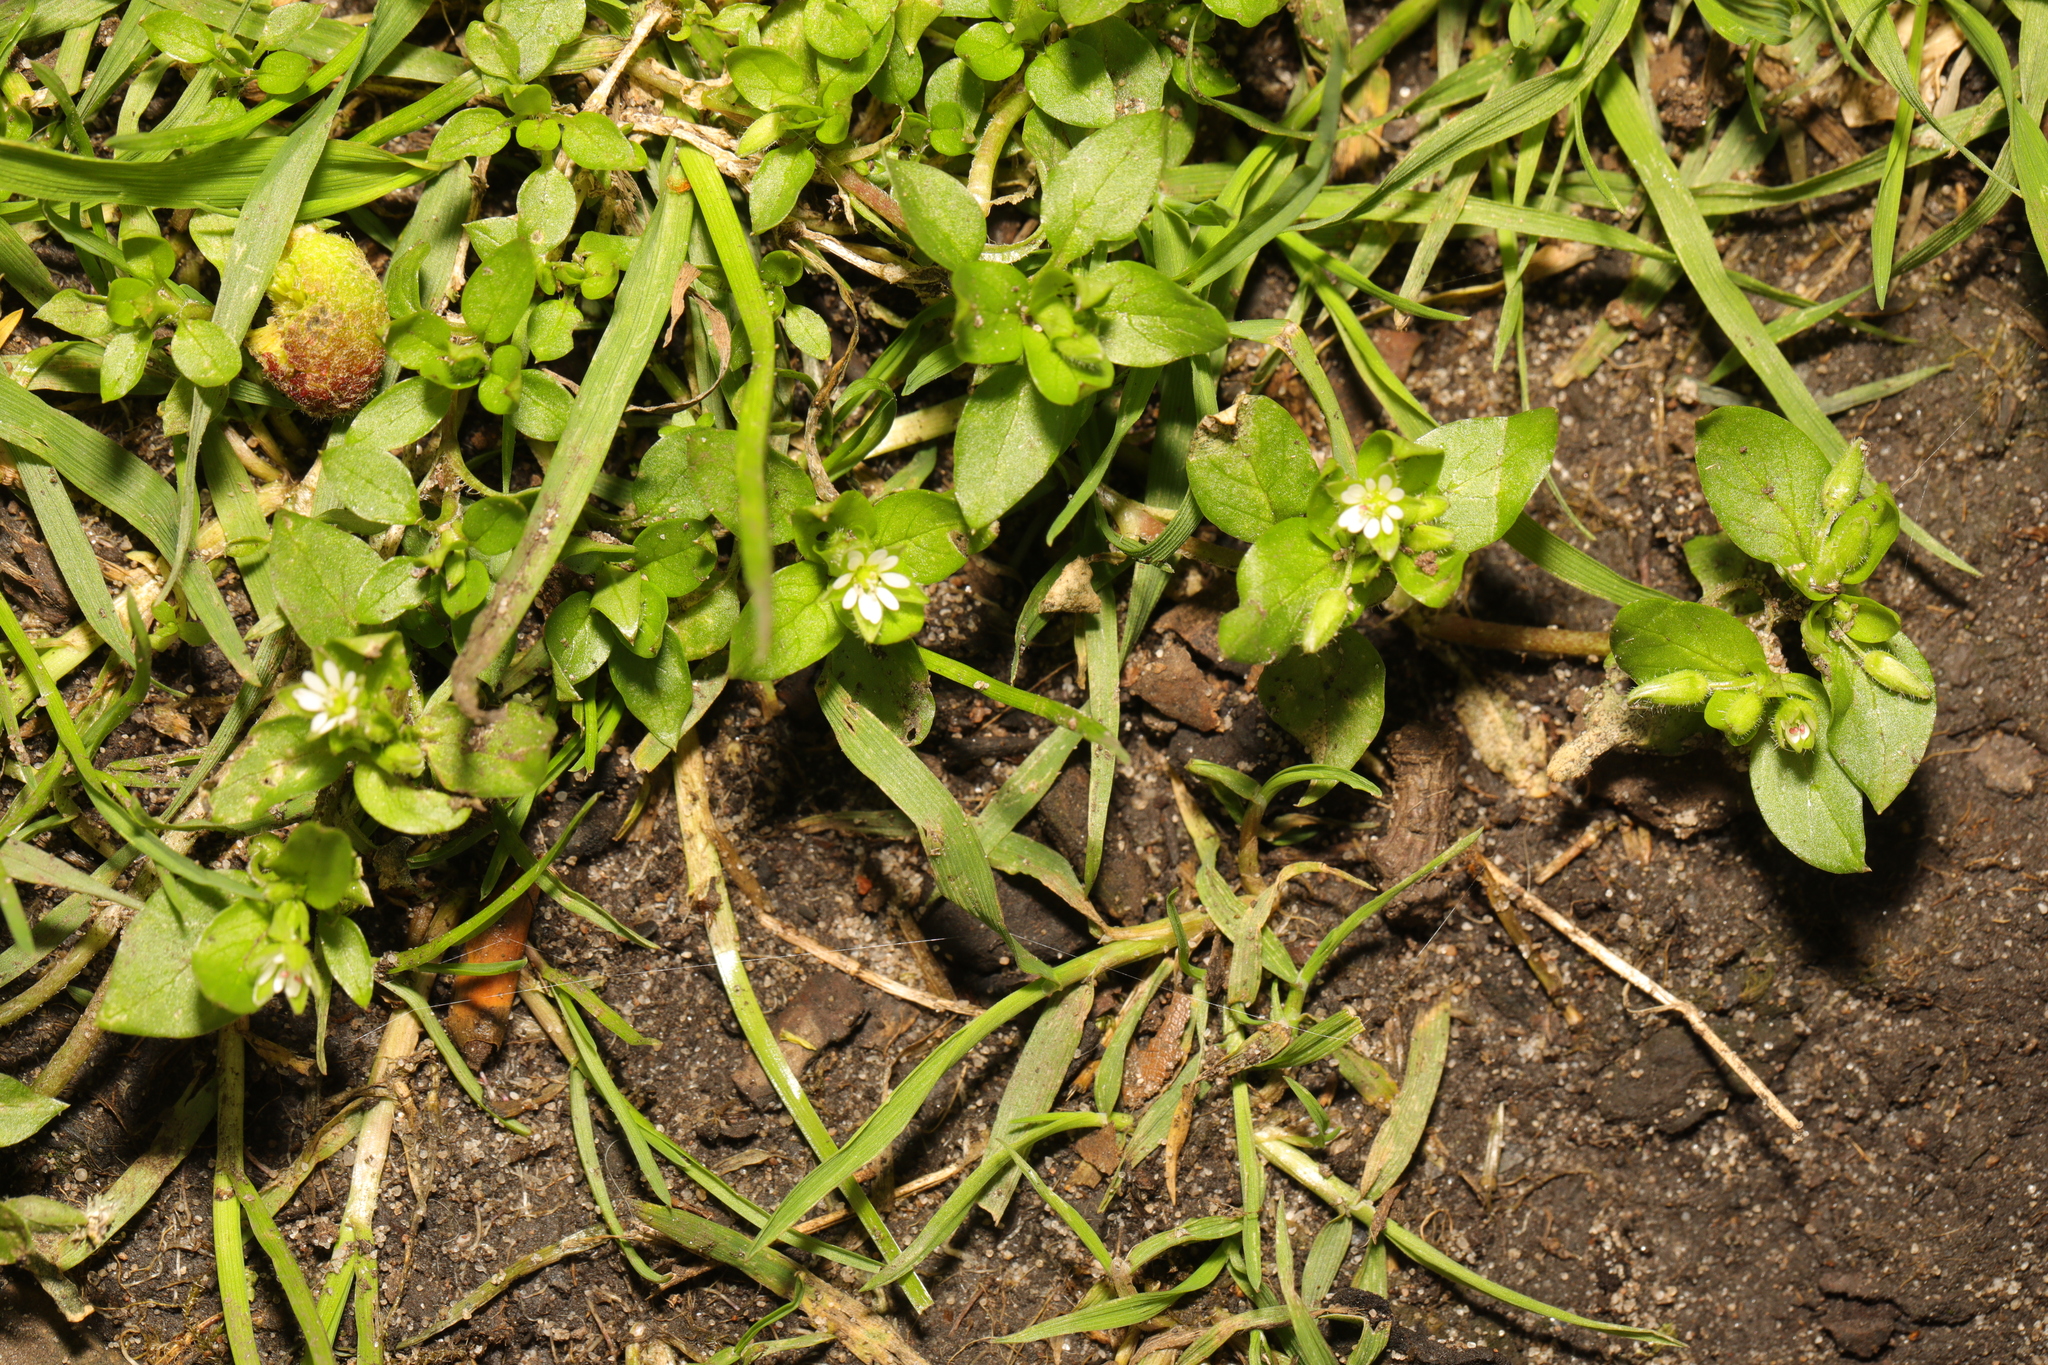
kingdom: Plantae
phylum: Tracheophyta
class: Magnoliopsida
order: Caryophyllales
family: Caryophyllaceae
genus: Stellaria
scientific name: Stellaria media
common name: Common chickweed
